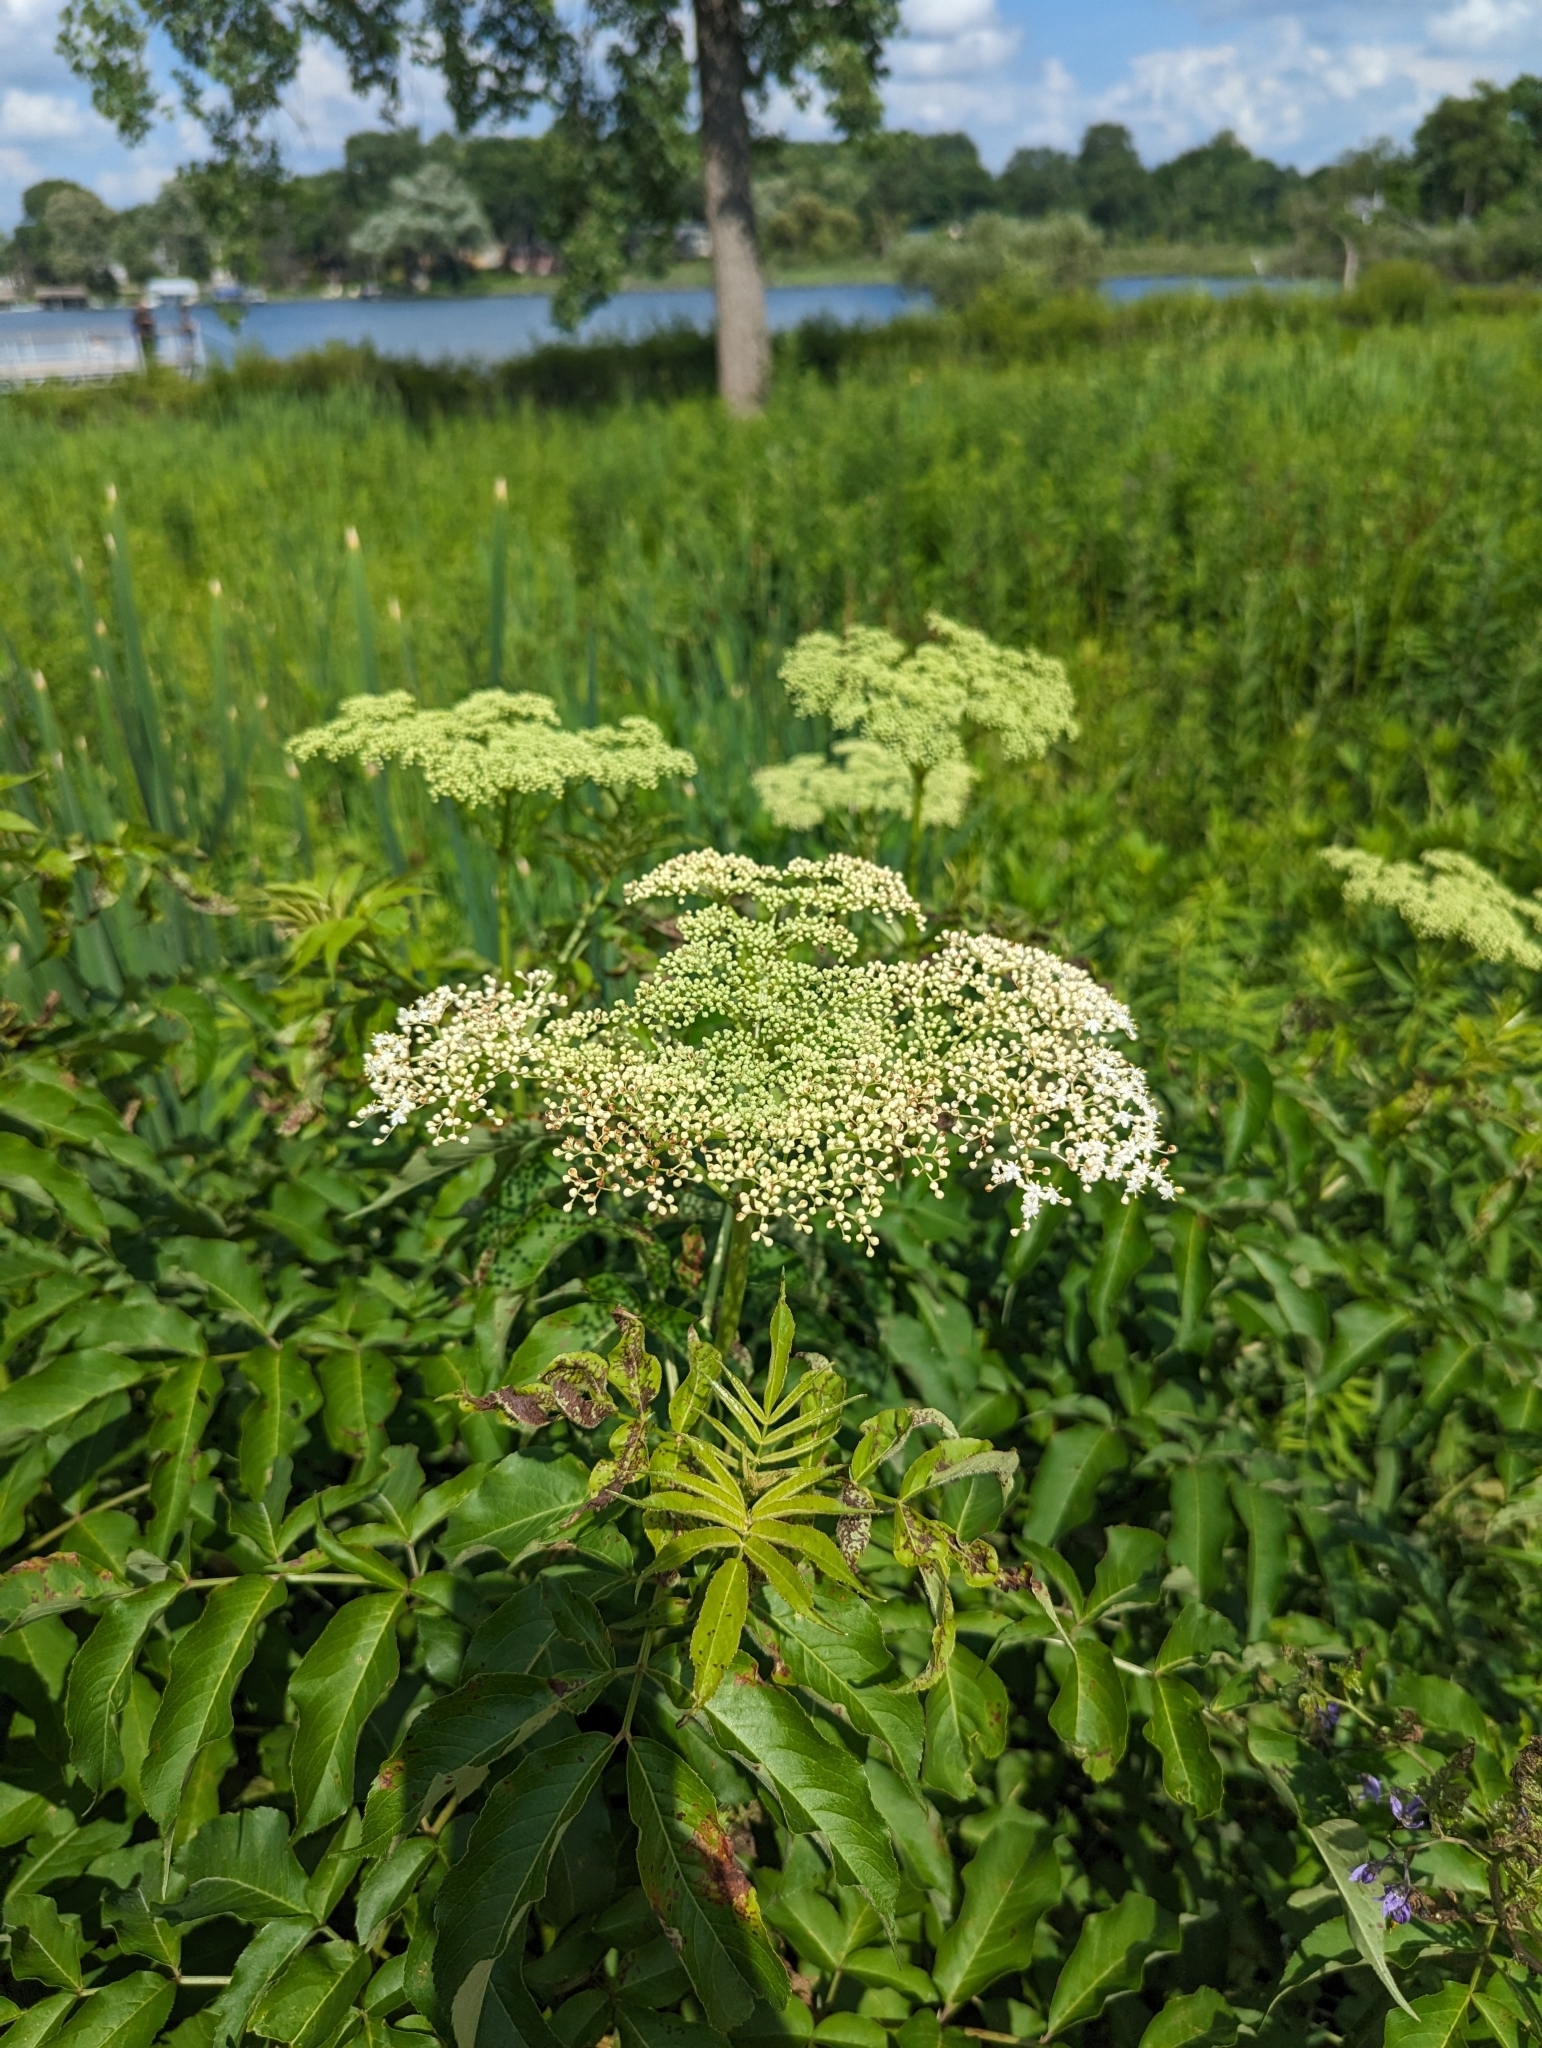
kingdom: Plantae
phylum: Tracheophyta
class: Magnoliopsida
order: Dipsacales
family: Viburnaceae
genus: Sambucus
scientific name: Sambucus canadensis
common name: American elder
